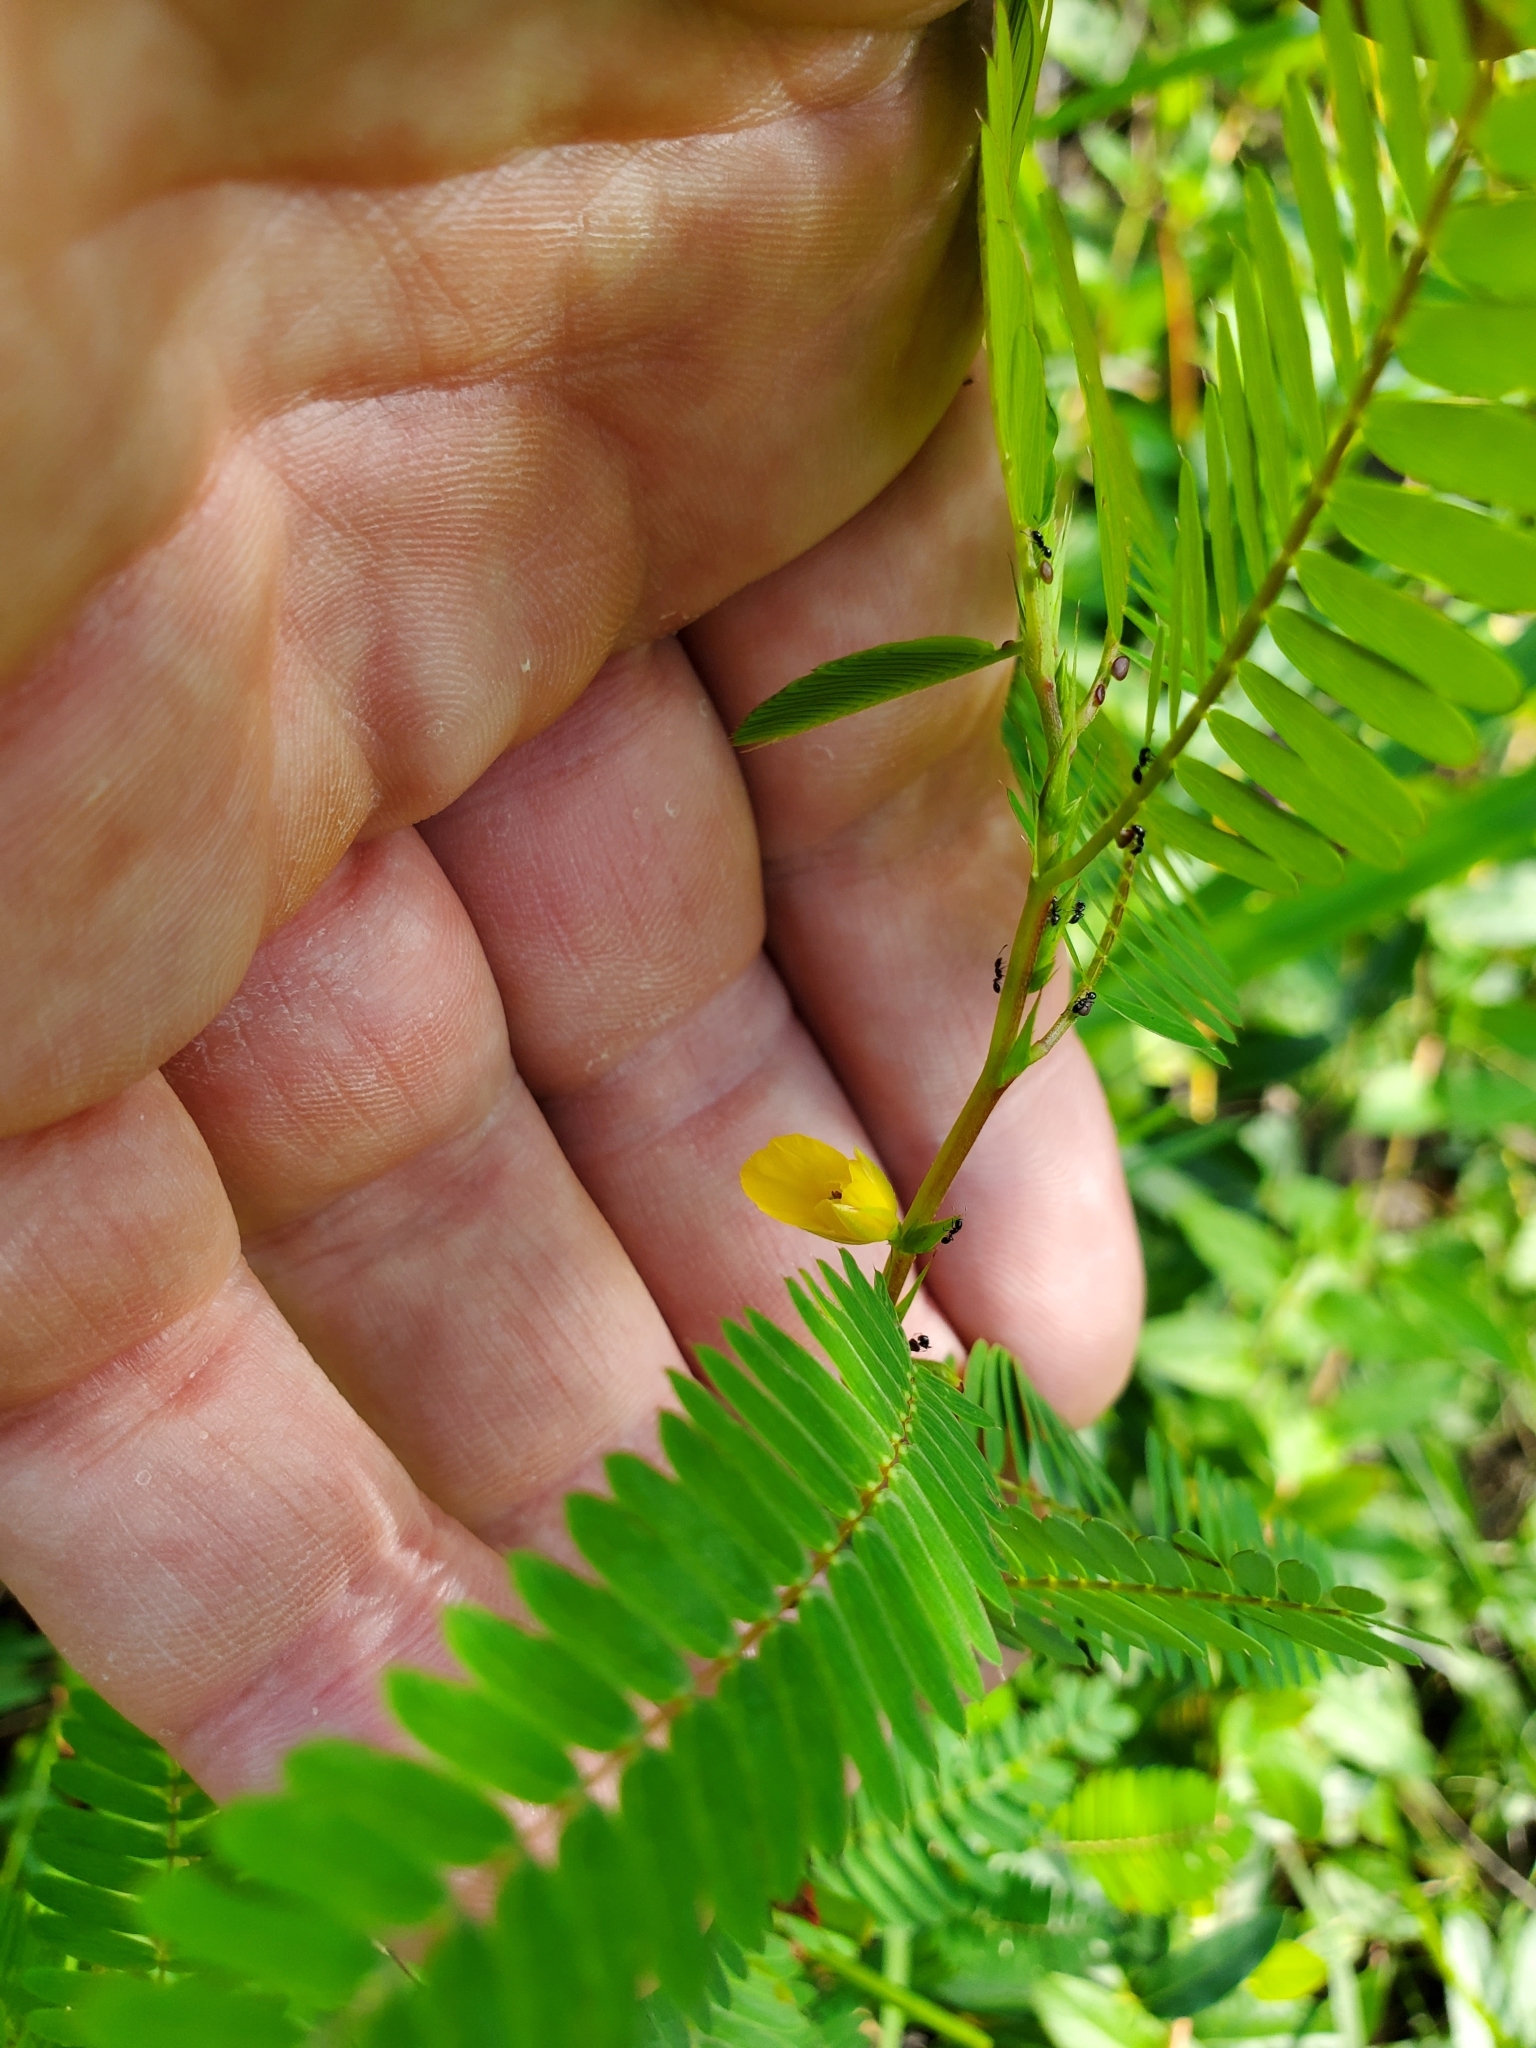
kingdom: Plantae
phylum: Tracheophyta
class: Magnoliopsida
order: Fabales
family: Fabaceae
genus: Chamaecrista
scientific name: Chamaecrista nictitans
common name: Sensitive cassia
